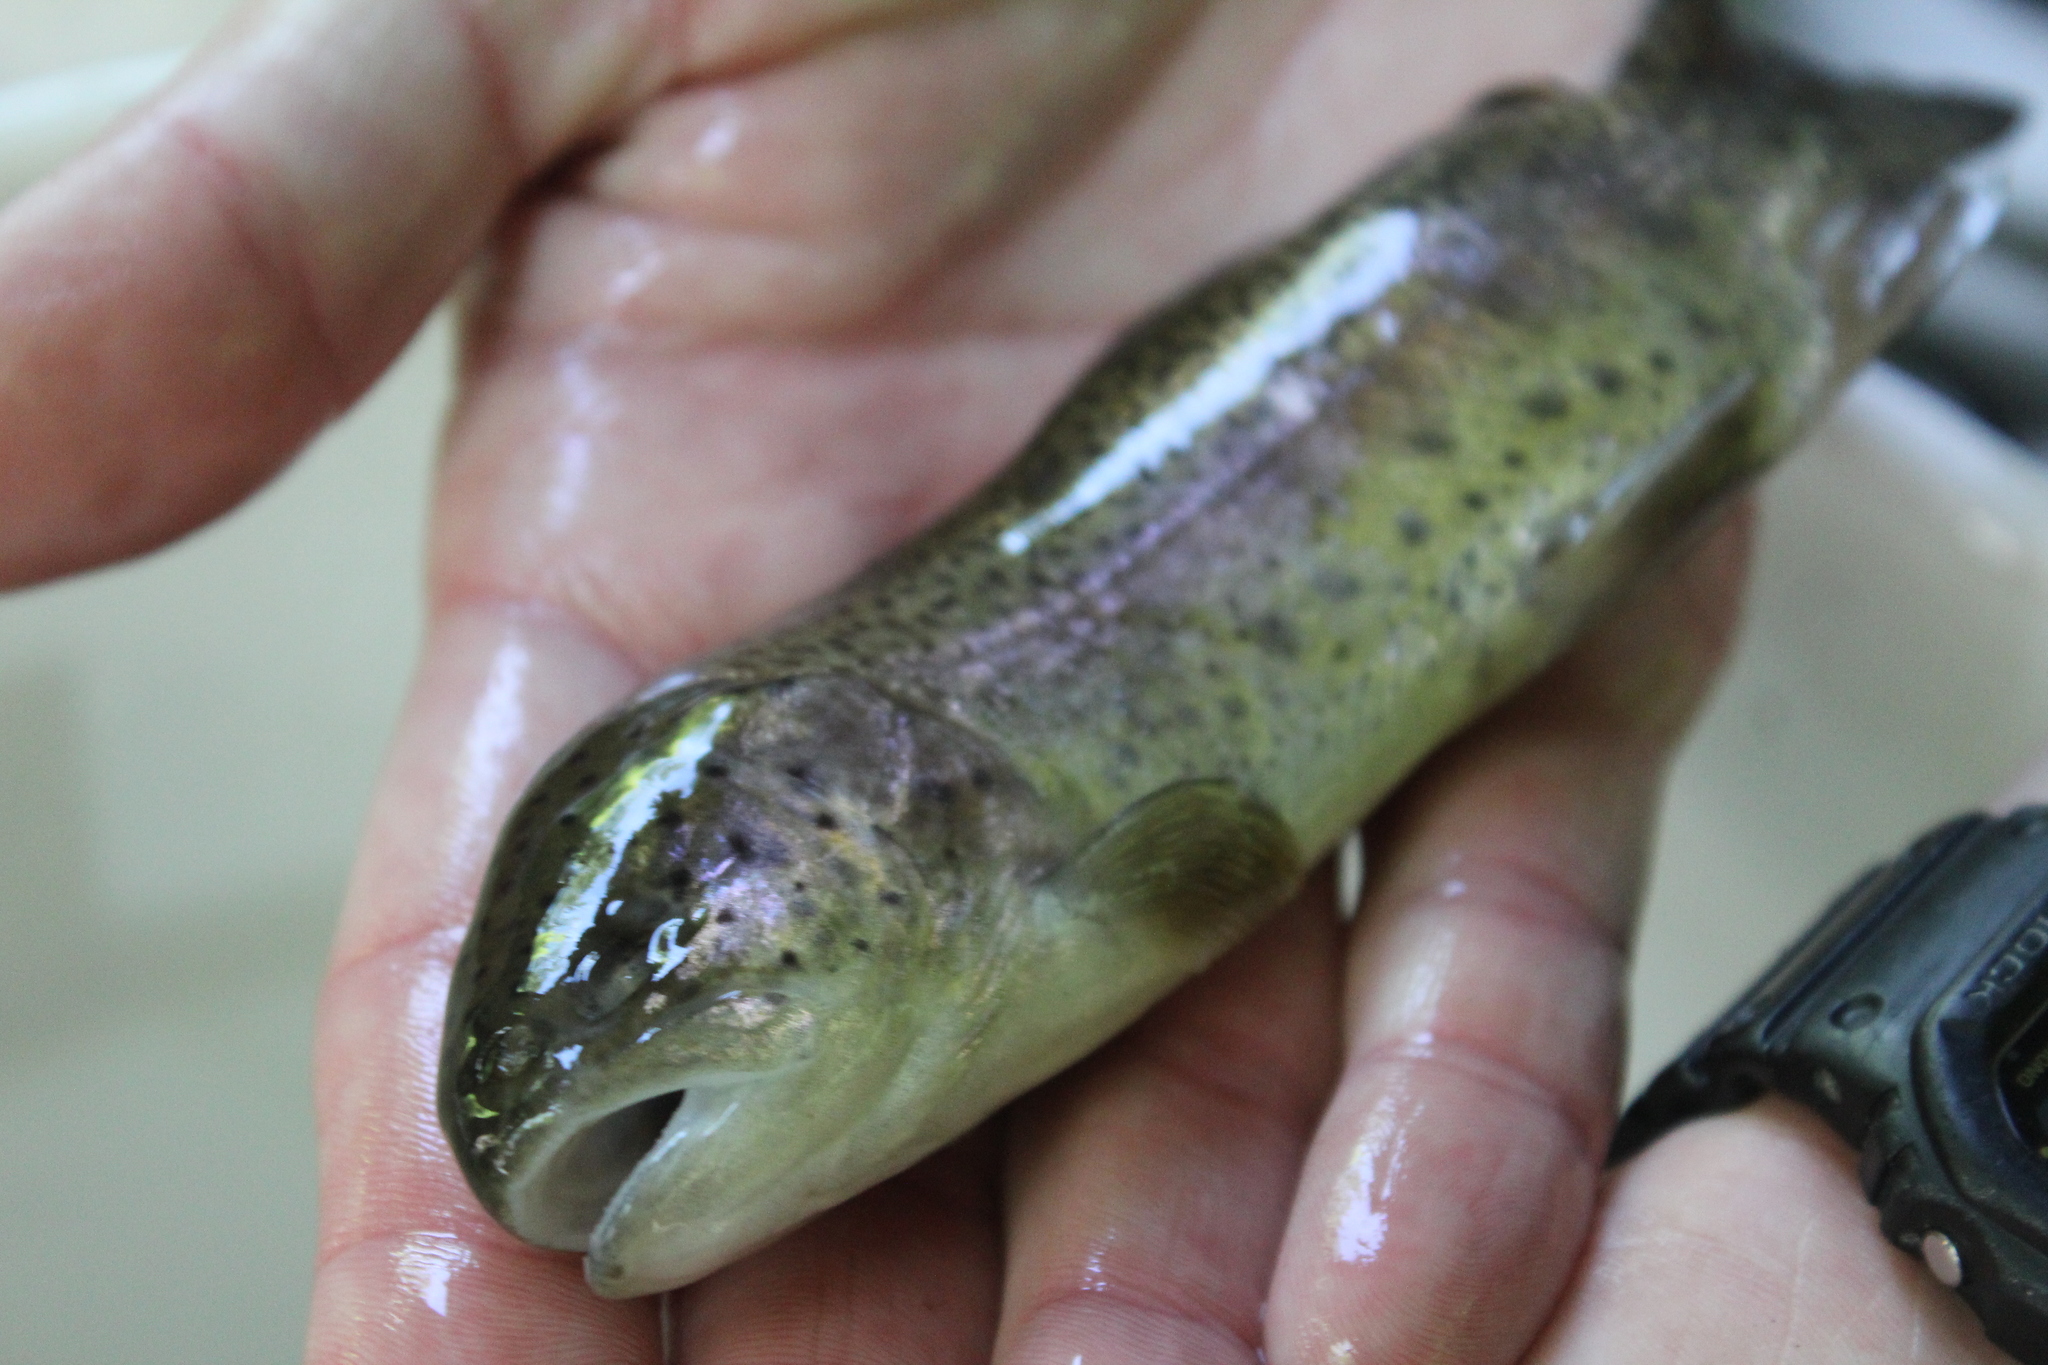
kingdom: Animalia
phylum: Chordata
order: Salmoniformes
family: Salmonidae
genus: Oncorhynchus
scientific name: Oncorhynchus mykiss
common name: Rainbow trout
